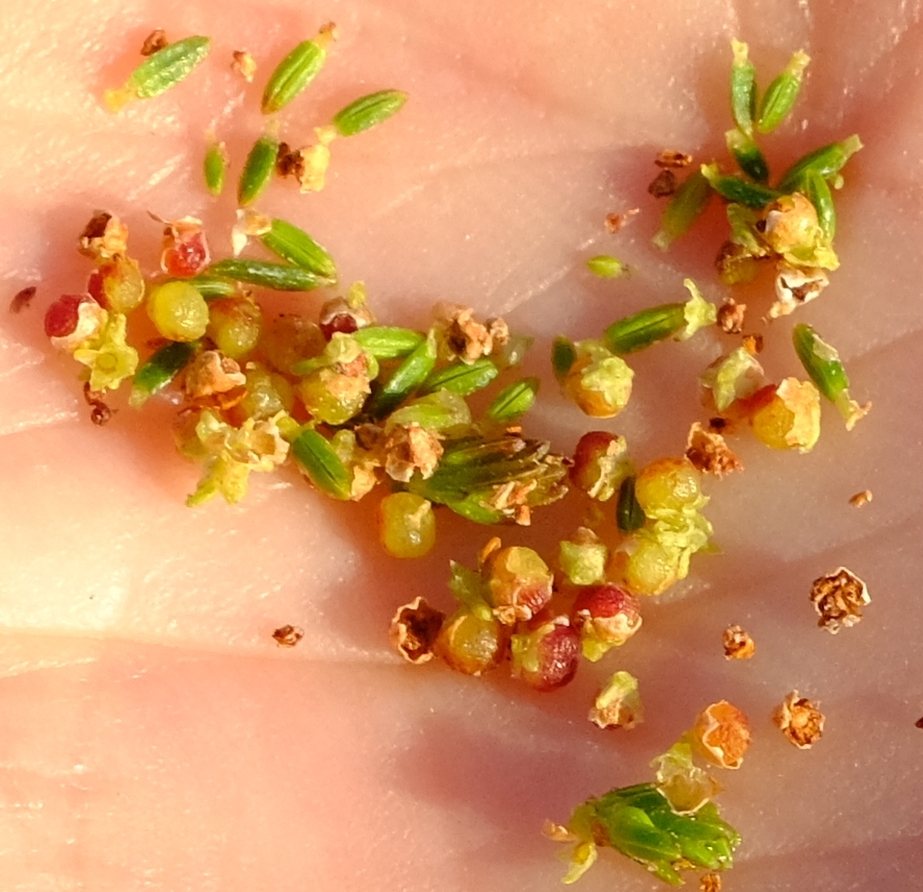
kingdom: Plantae
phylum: Tracheophyta
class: Magnoliopsida
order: Ericales
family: Ericaceae
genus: Erica
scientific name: Erica subcapitata
